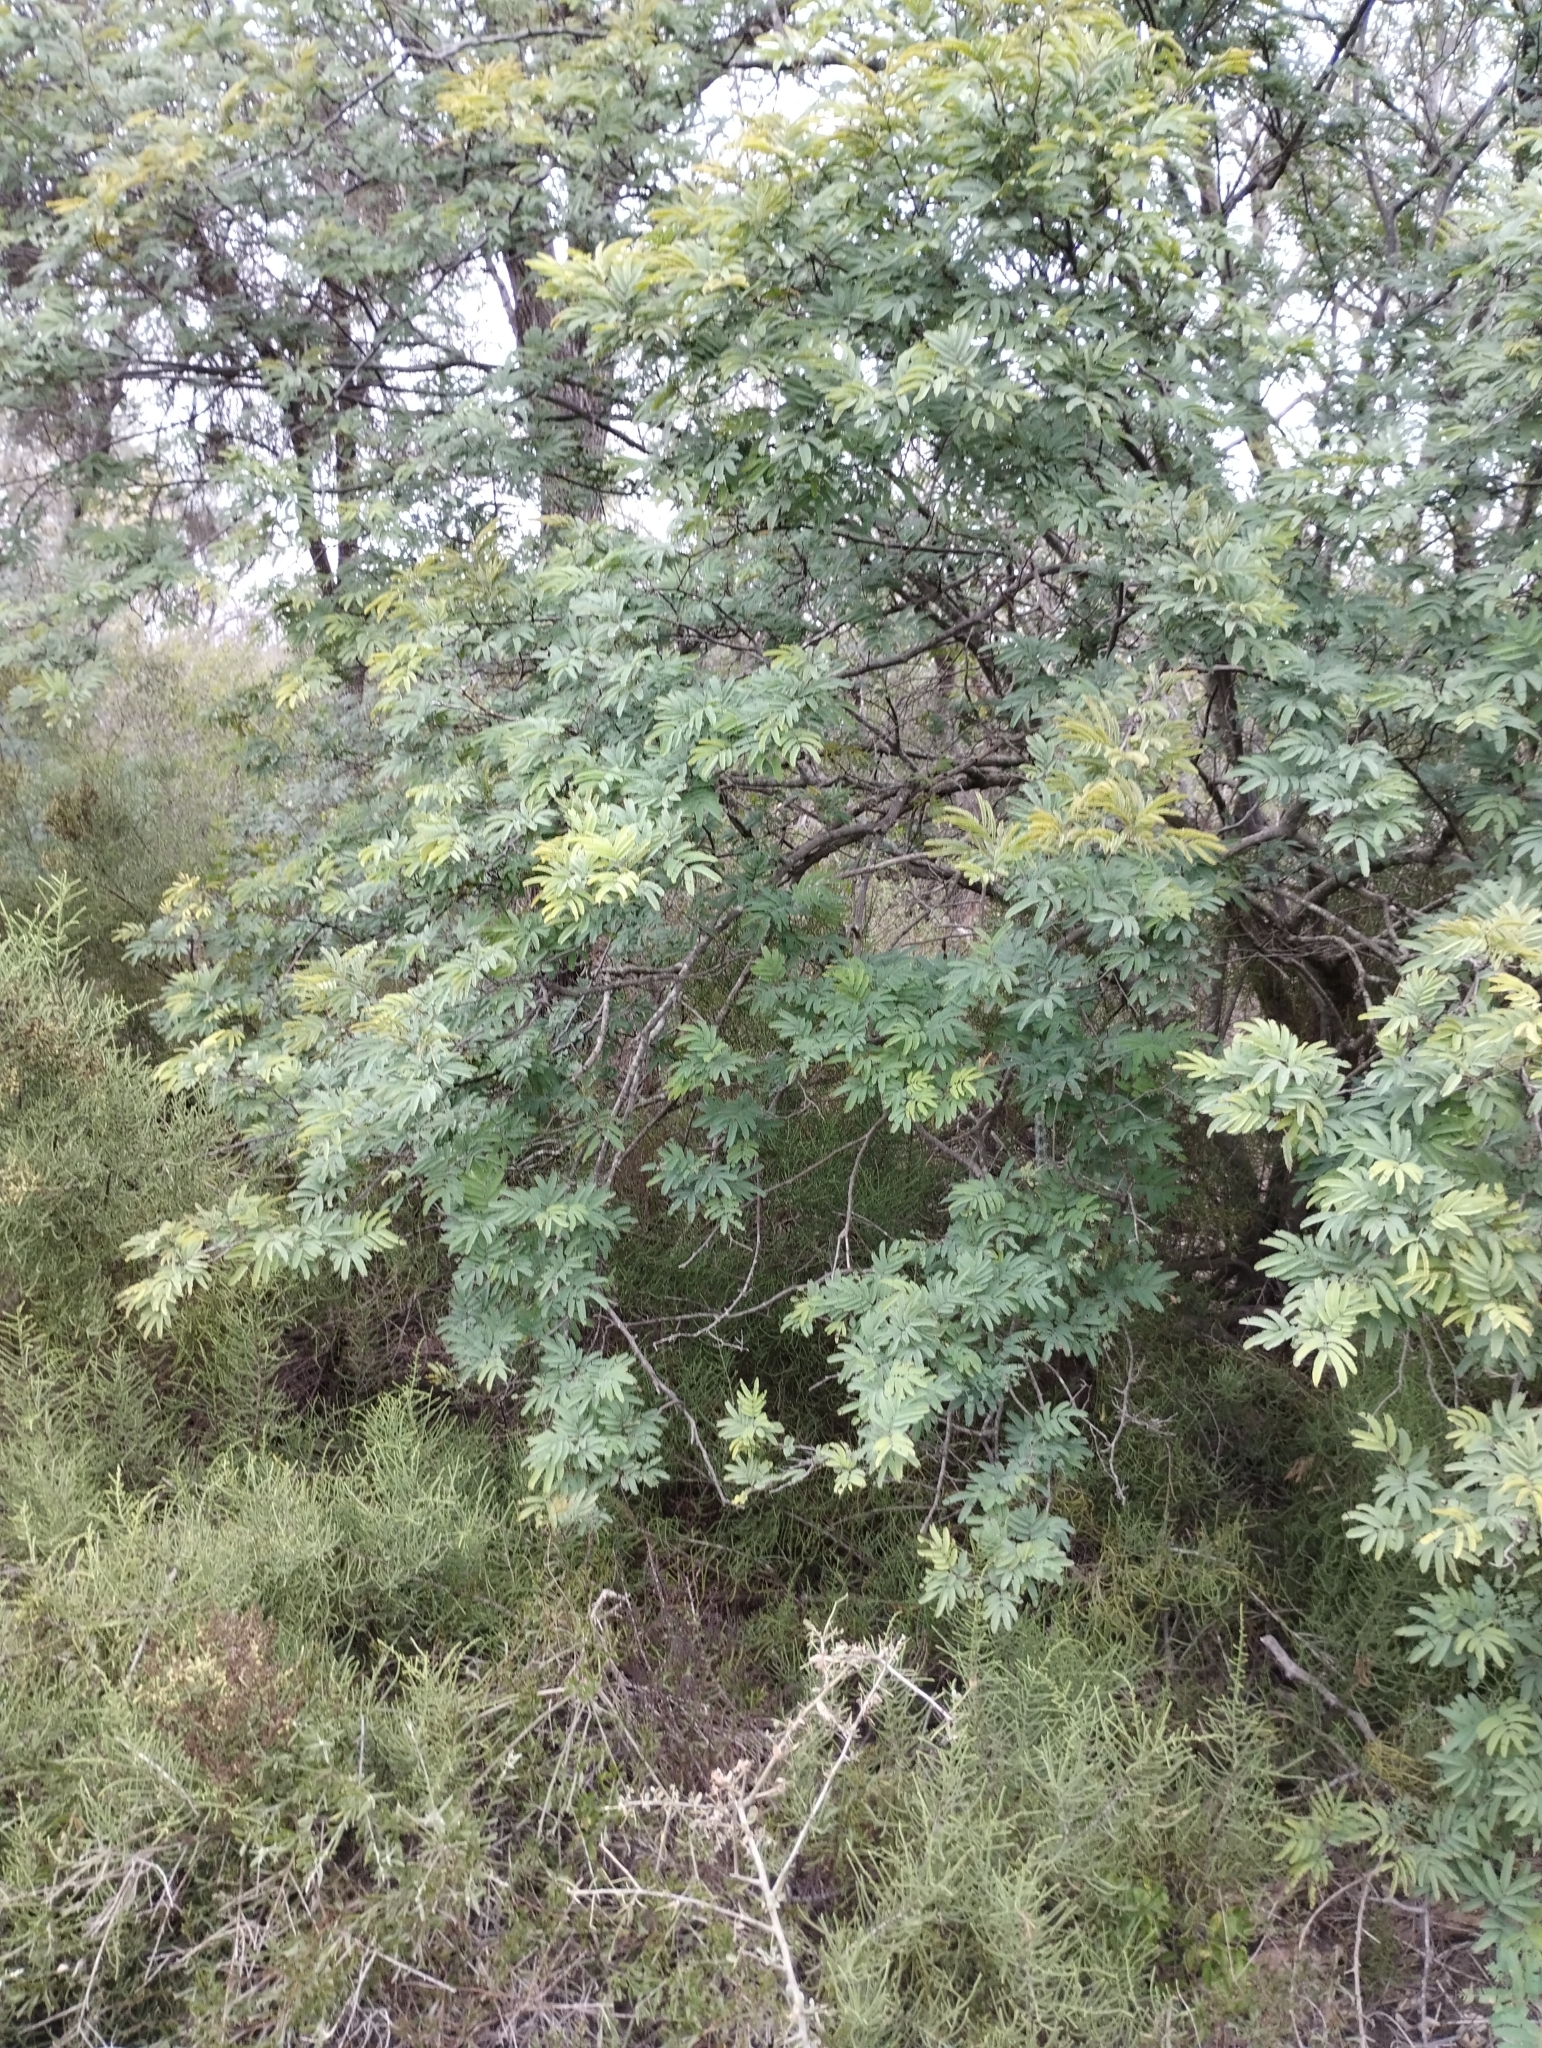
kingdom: Plantae
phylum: Tracheophyta
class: Magnoliopsida
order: Fabales
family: Fabaceae
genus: Senegalia
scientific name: Senegalia praecox
